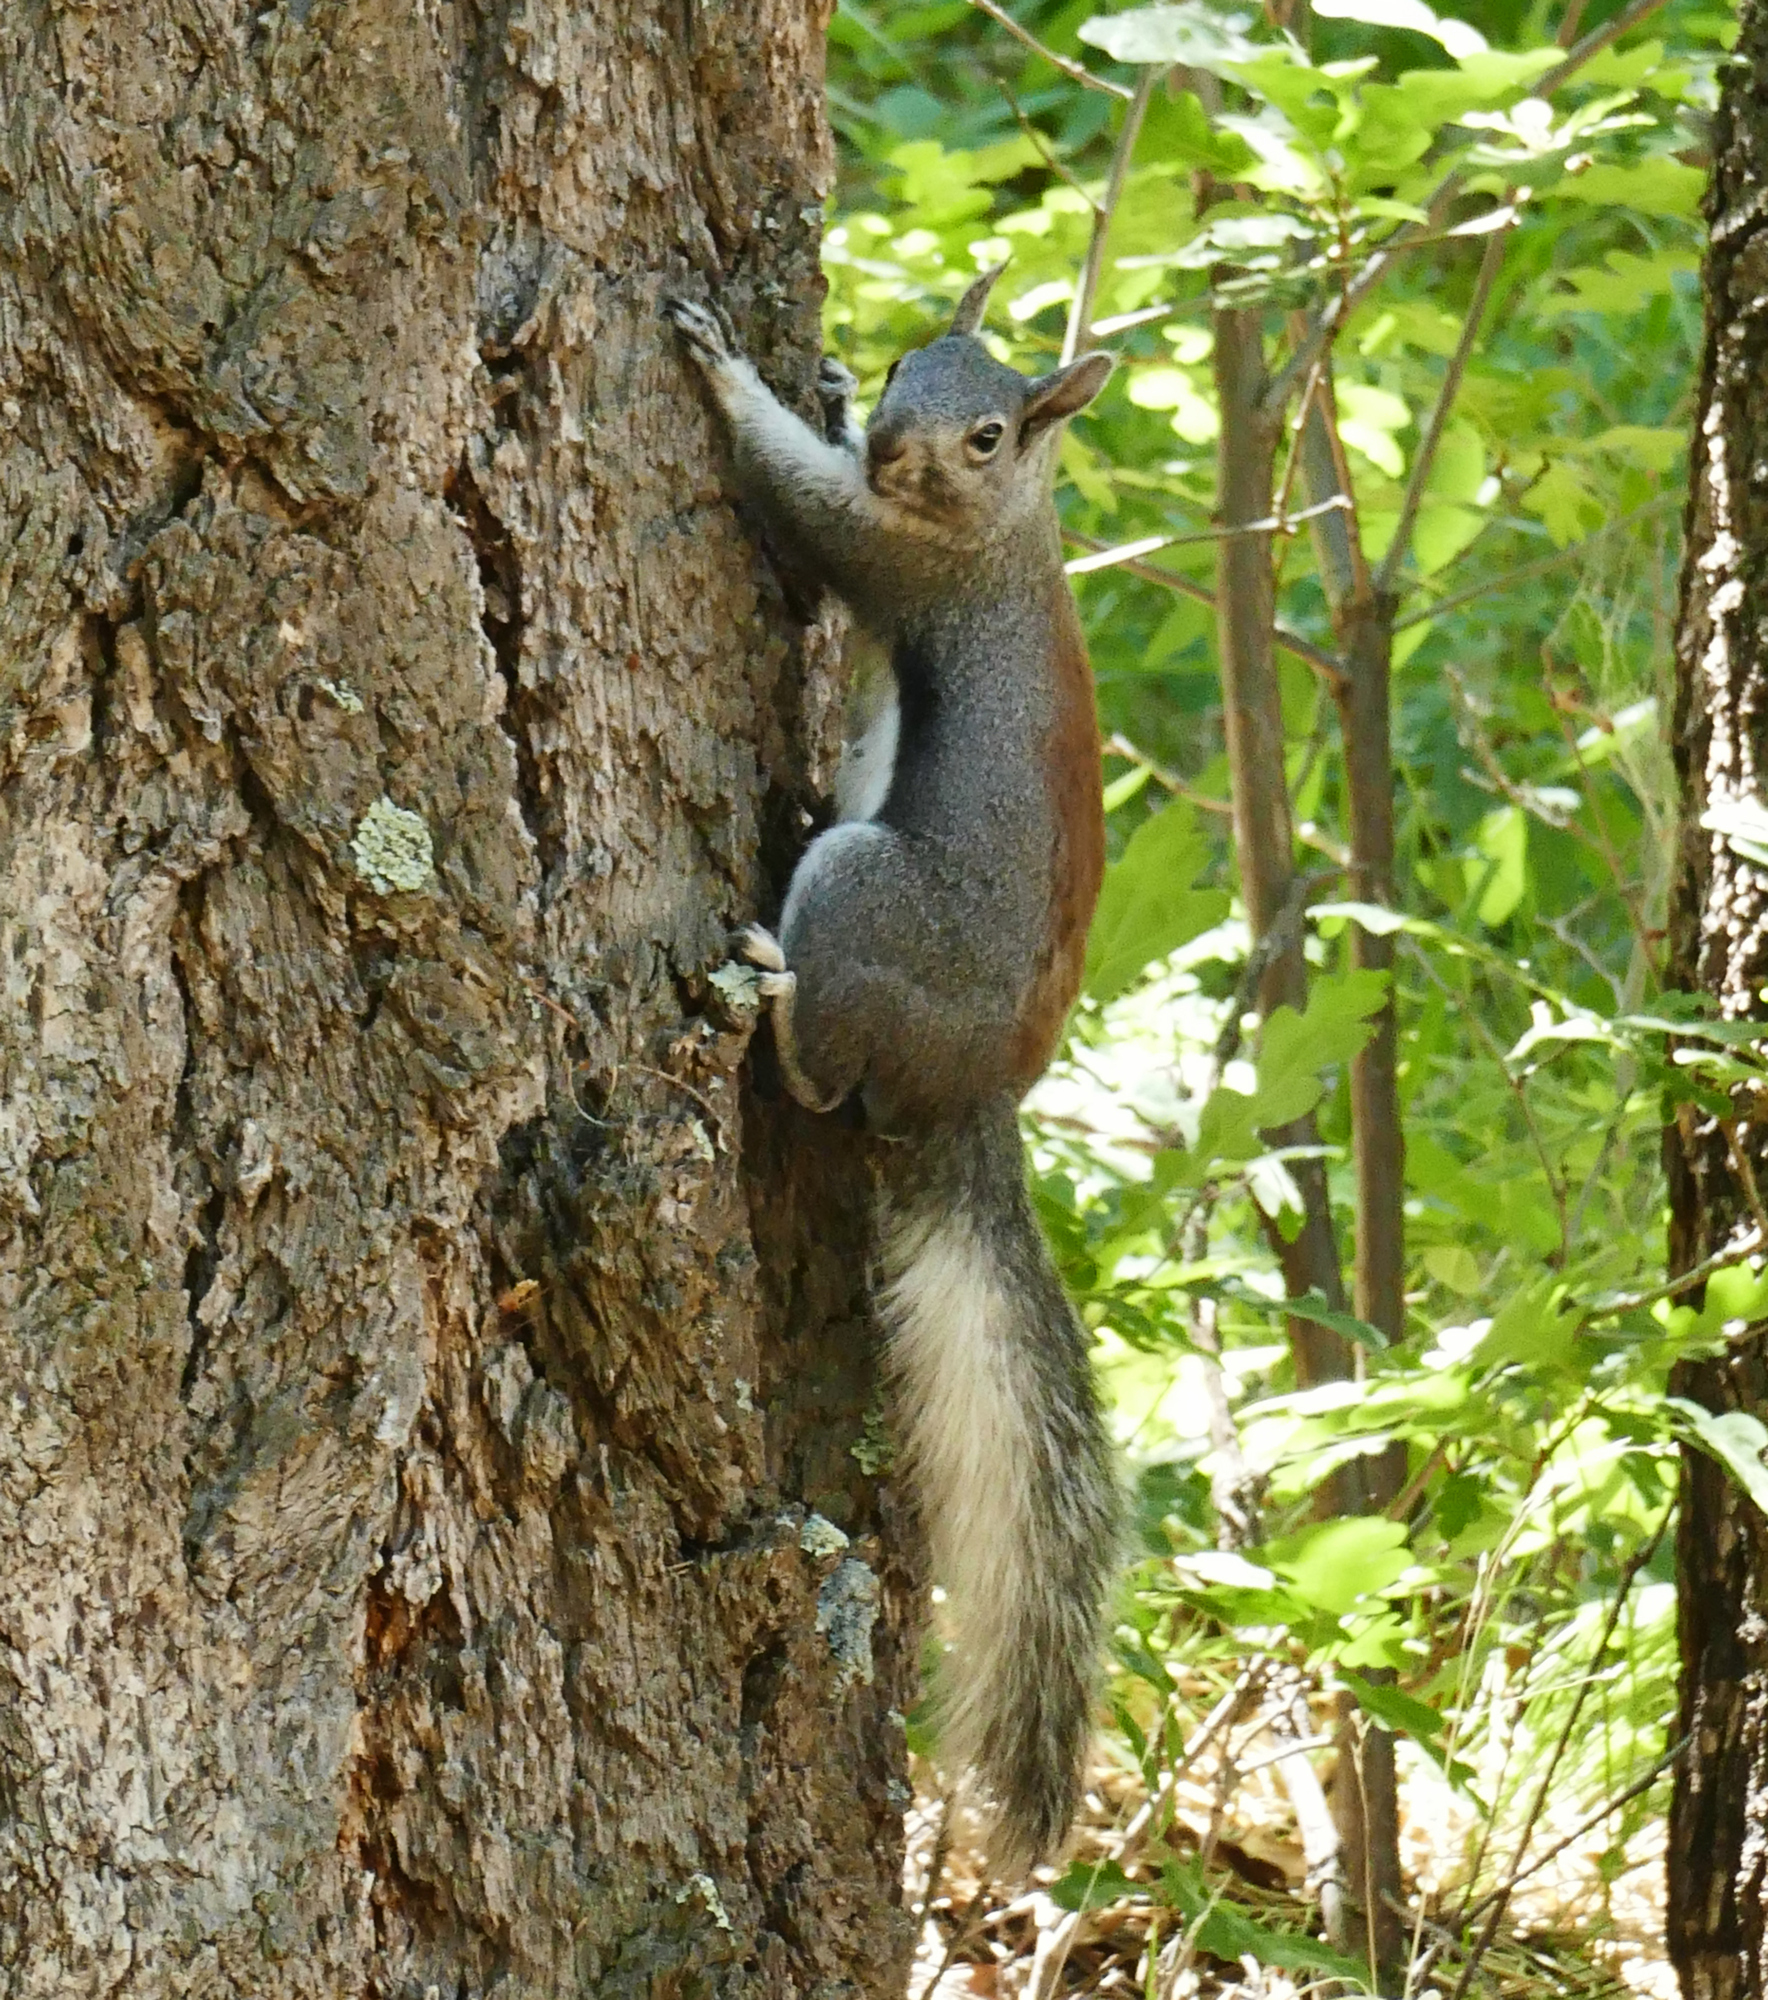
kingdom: Animalia
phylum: Chordata
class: Mammalia
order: Rodentia
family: Sciuridae
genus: Sciurus
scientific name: Sciurus aberti
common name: Abert's squirrel
